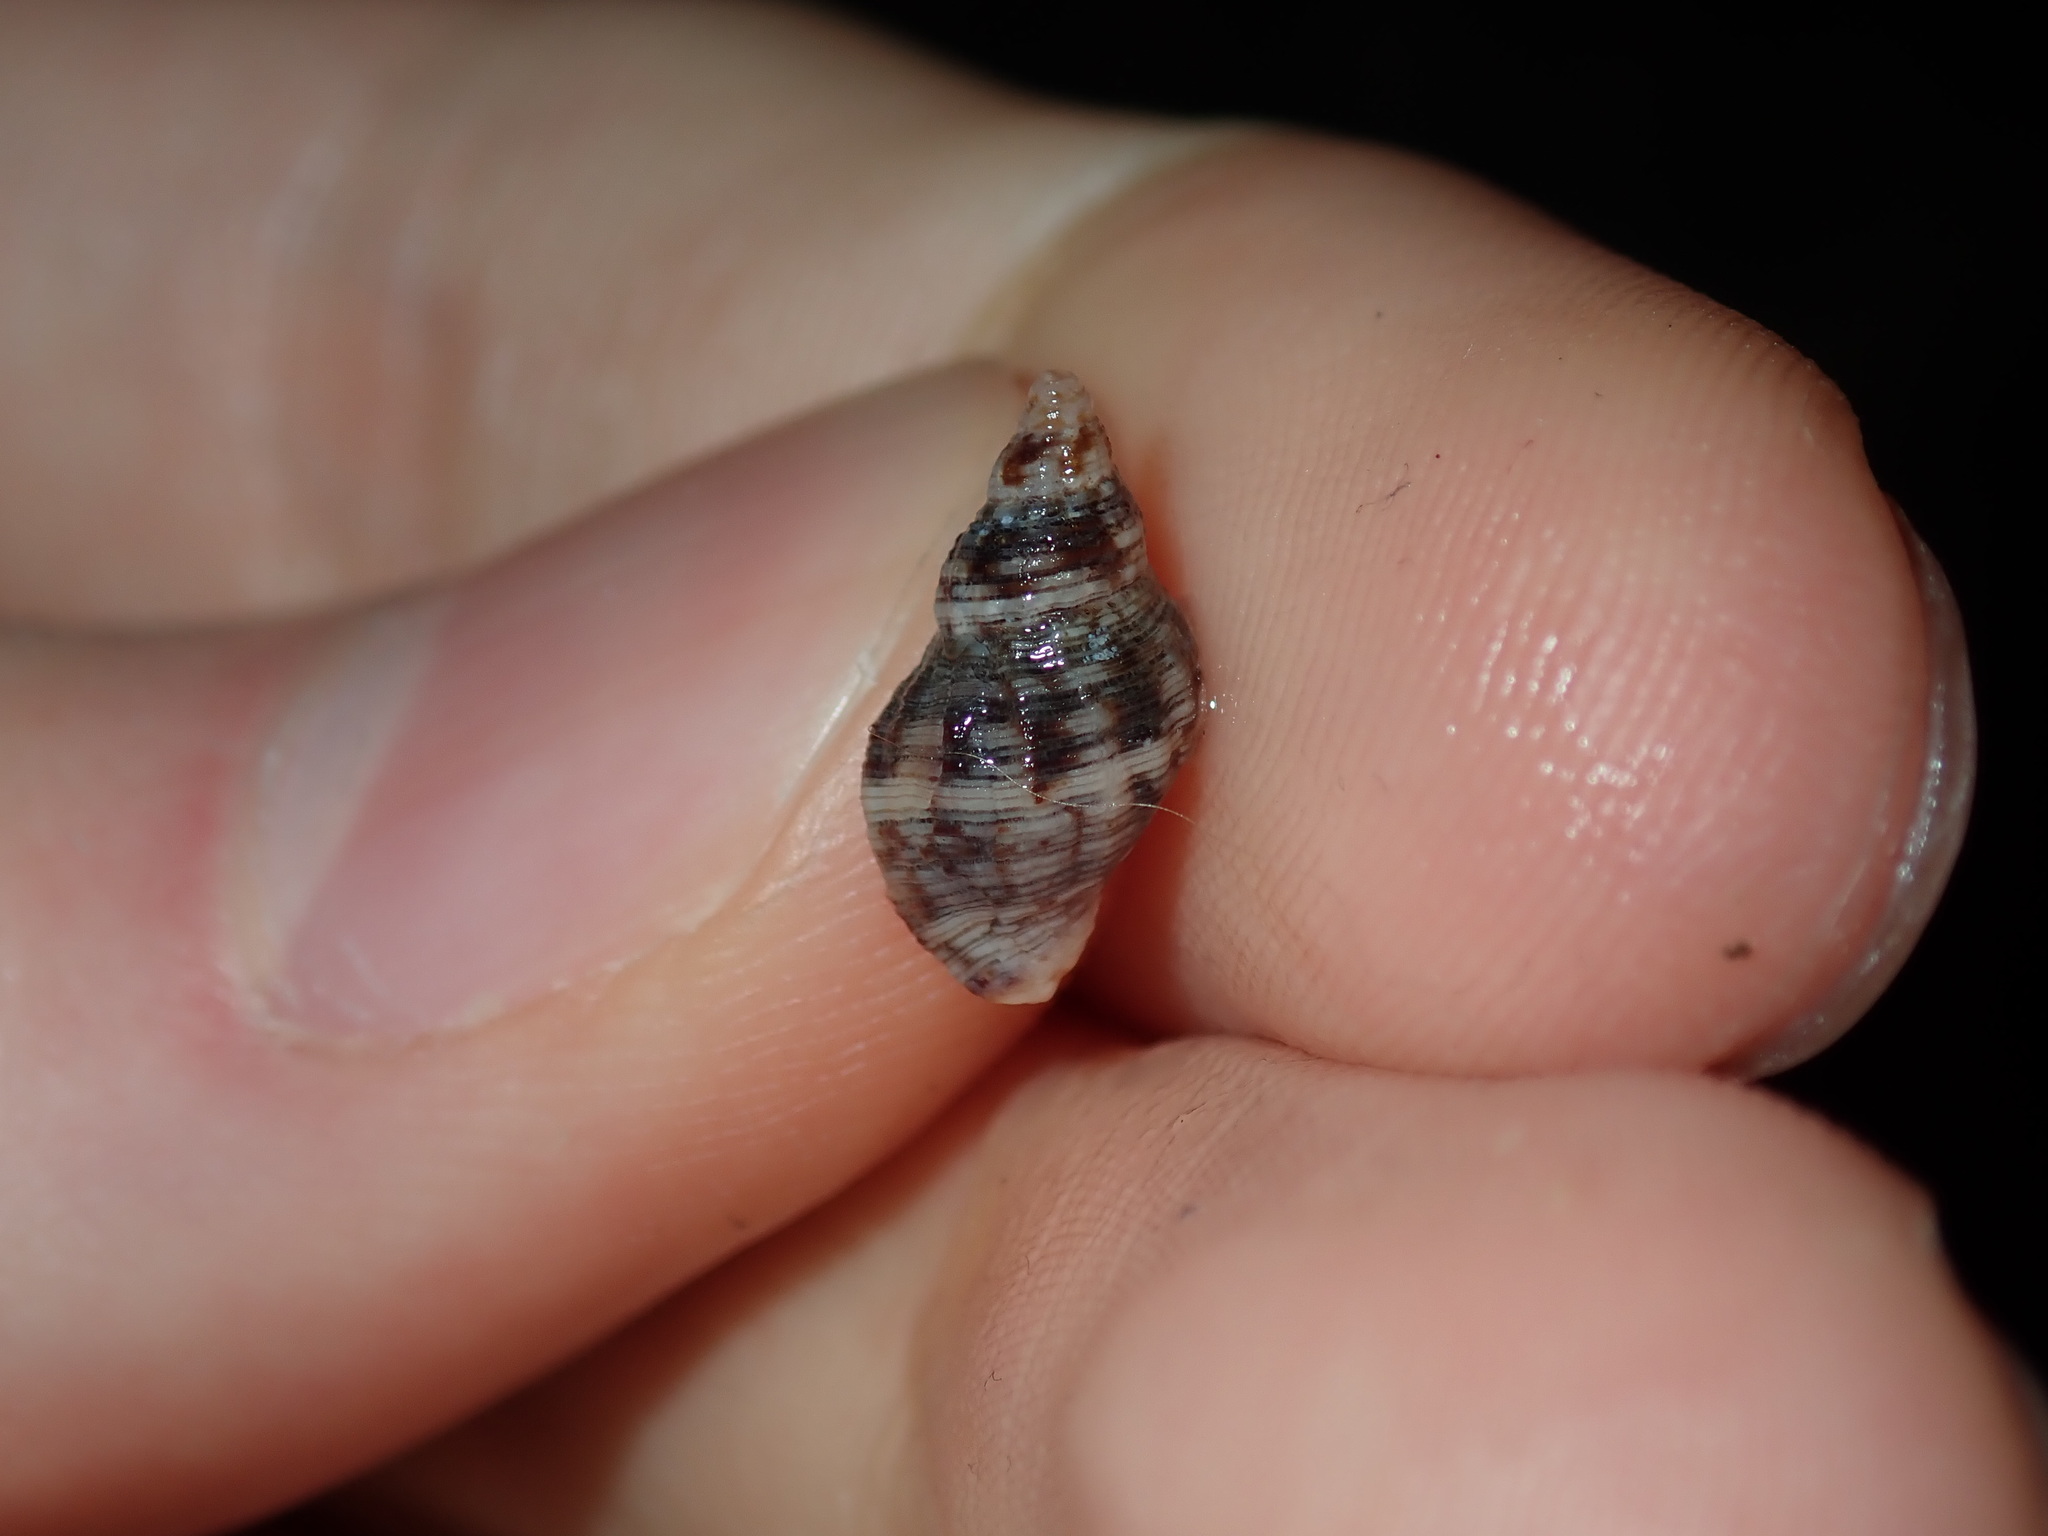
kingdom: Animalia
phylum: Mollusca
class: Gastropoda
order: Neogastropoda
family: Muricidae
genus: Agnewia
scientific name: Agnewia tritoniformis
